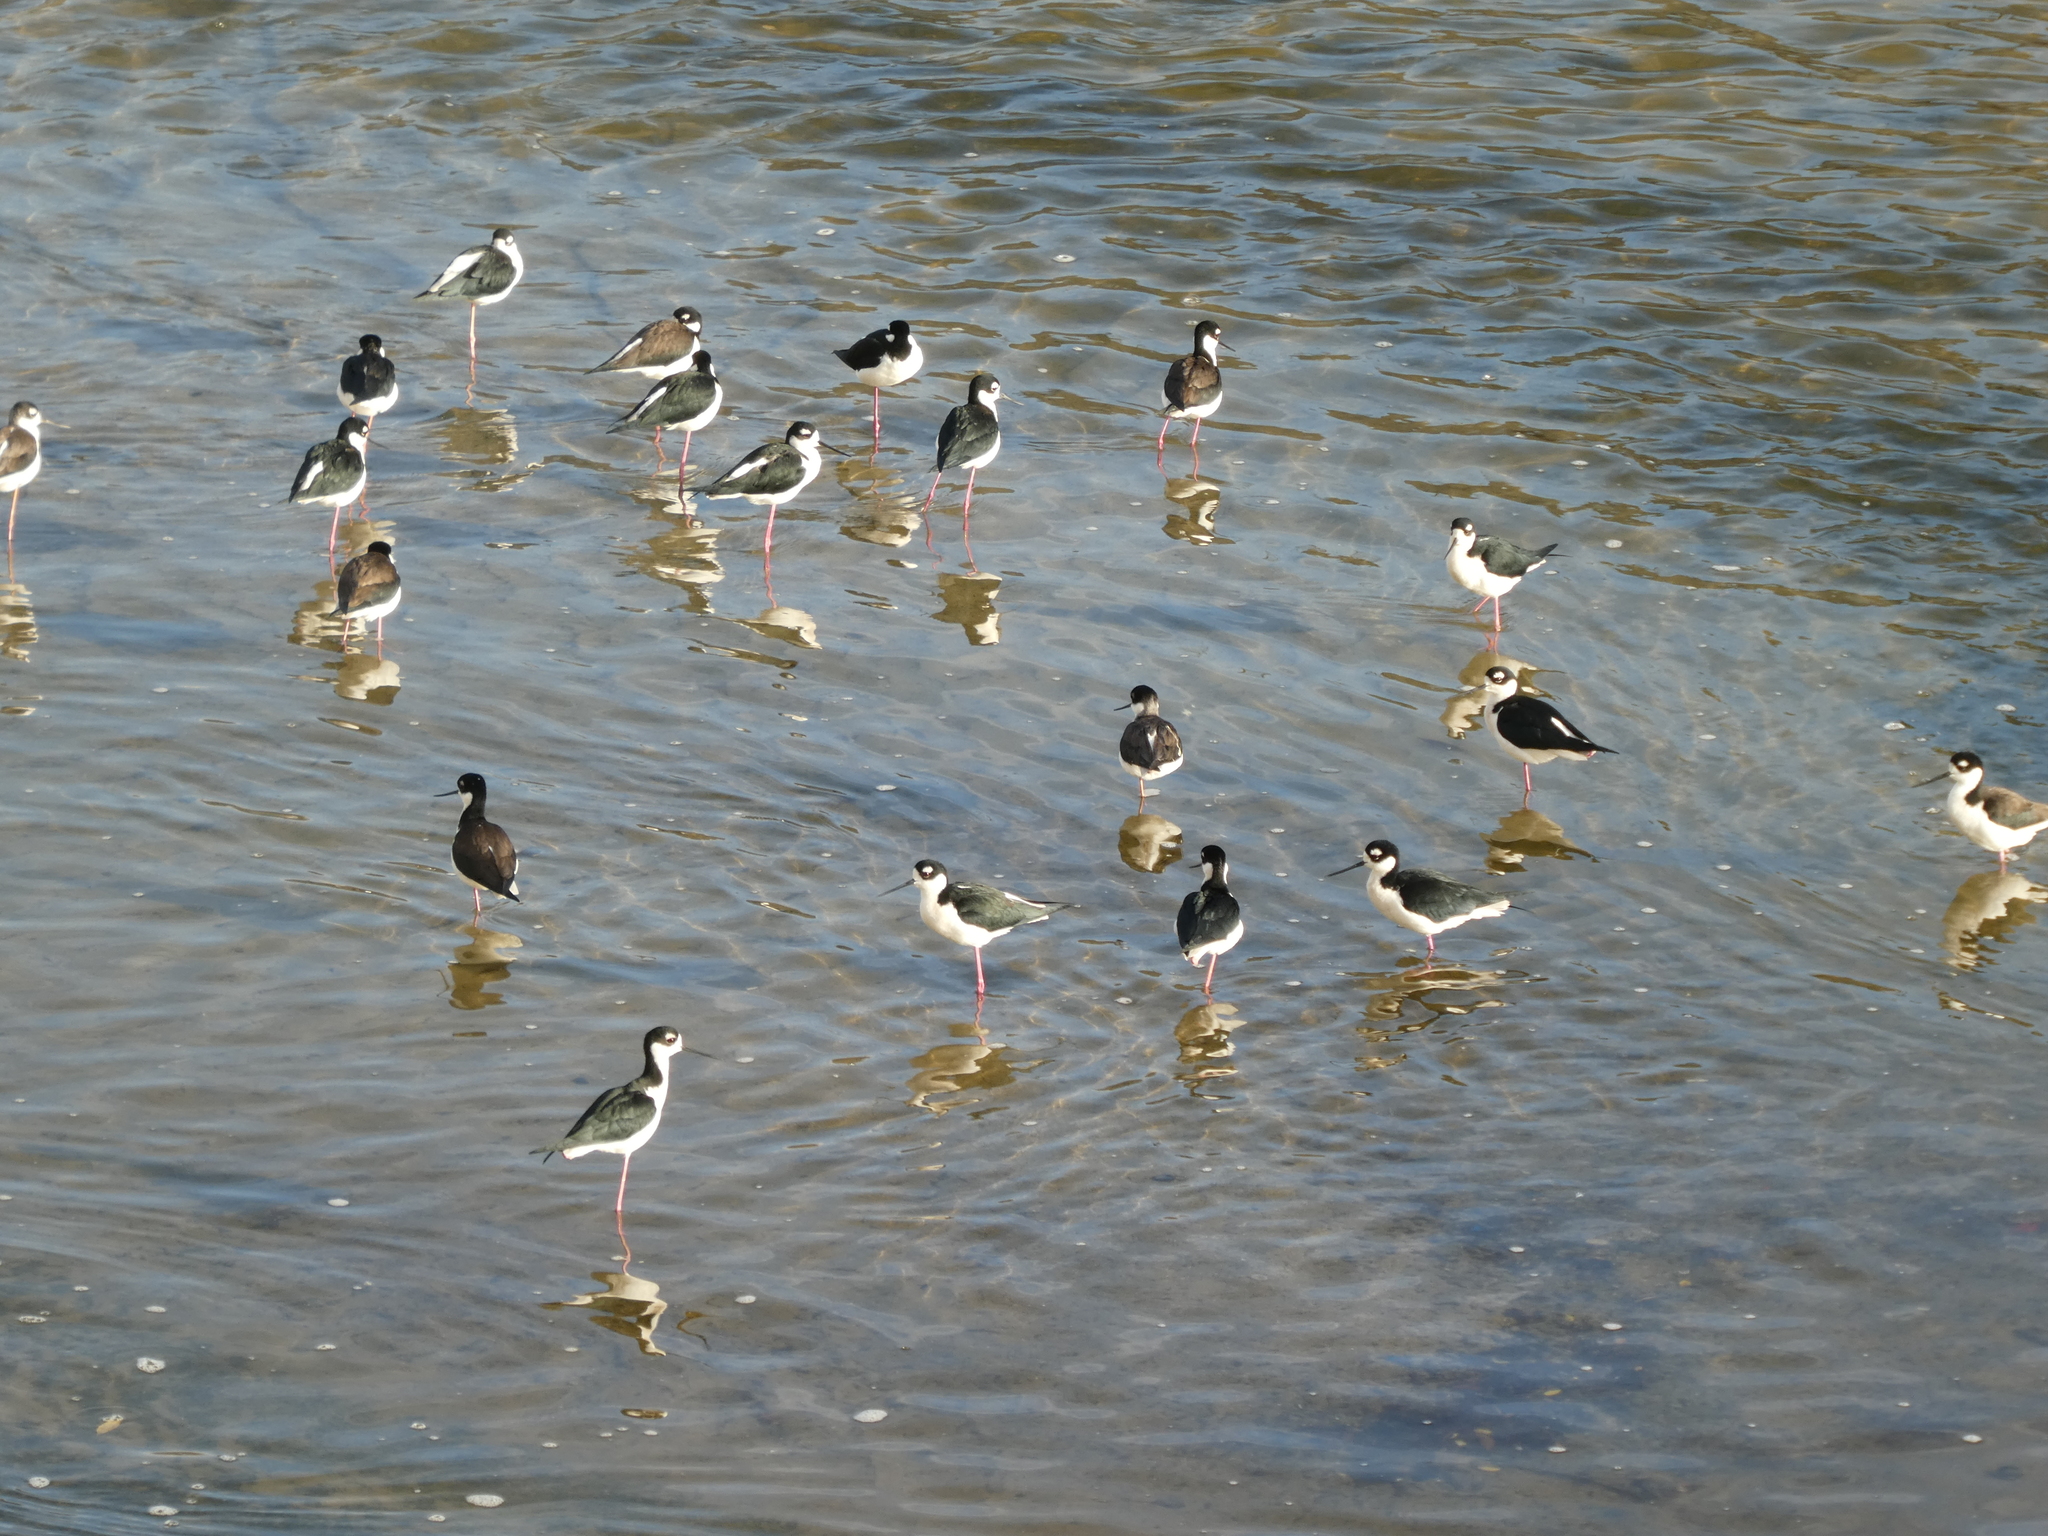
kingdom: Animalia
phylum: Chordata
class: Aves
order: Charadriiformes
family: Recurvirostridae
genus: Himantopus
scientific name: Himantopus mexicanus
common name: Black-necked stilt
